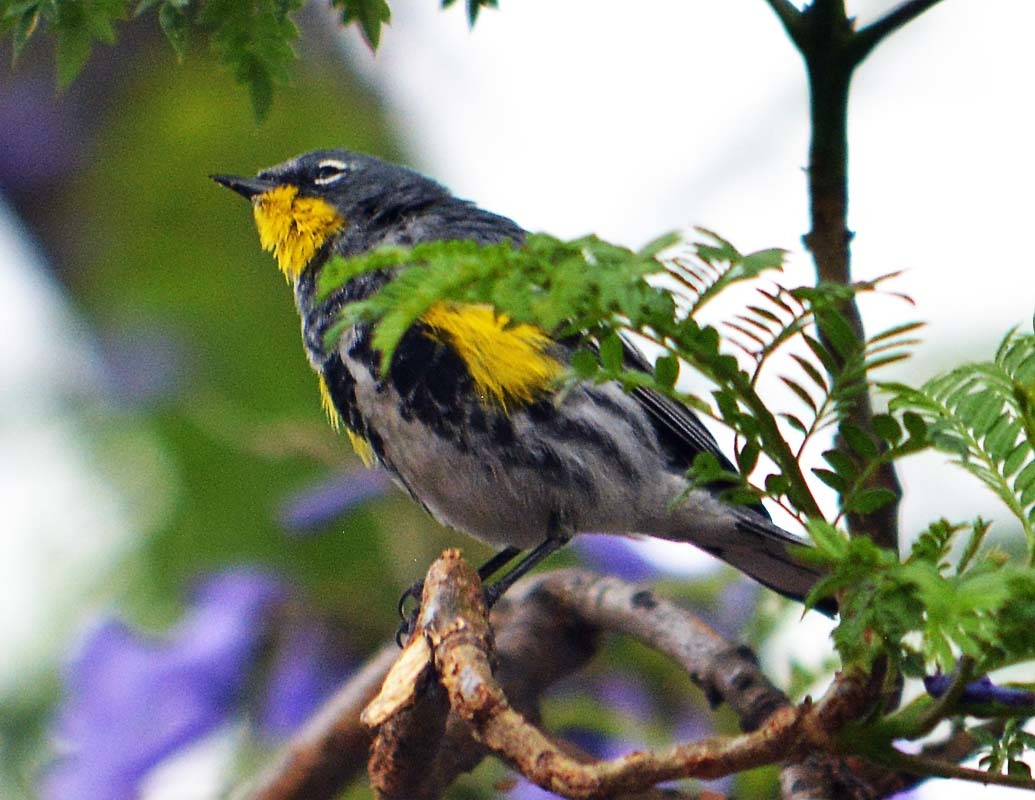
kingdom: Animalia
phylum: Chordata
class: Aves
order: Passeriformes
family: Parulidae
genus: Setophaga
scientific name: Setophaga auduboni
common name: Audubon's warbler
